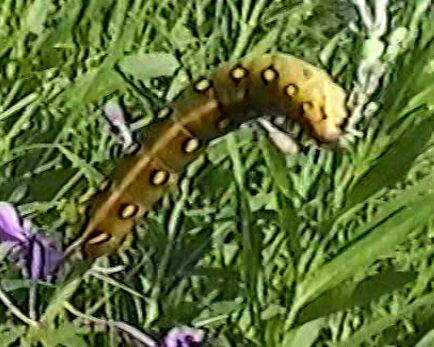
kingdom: Animalia
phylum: Arthropoda
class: Insecta
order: Lepidoptera
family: Sphingidae
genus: Hyles
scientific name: Hyles gallii
